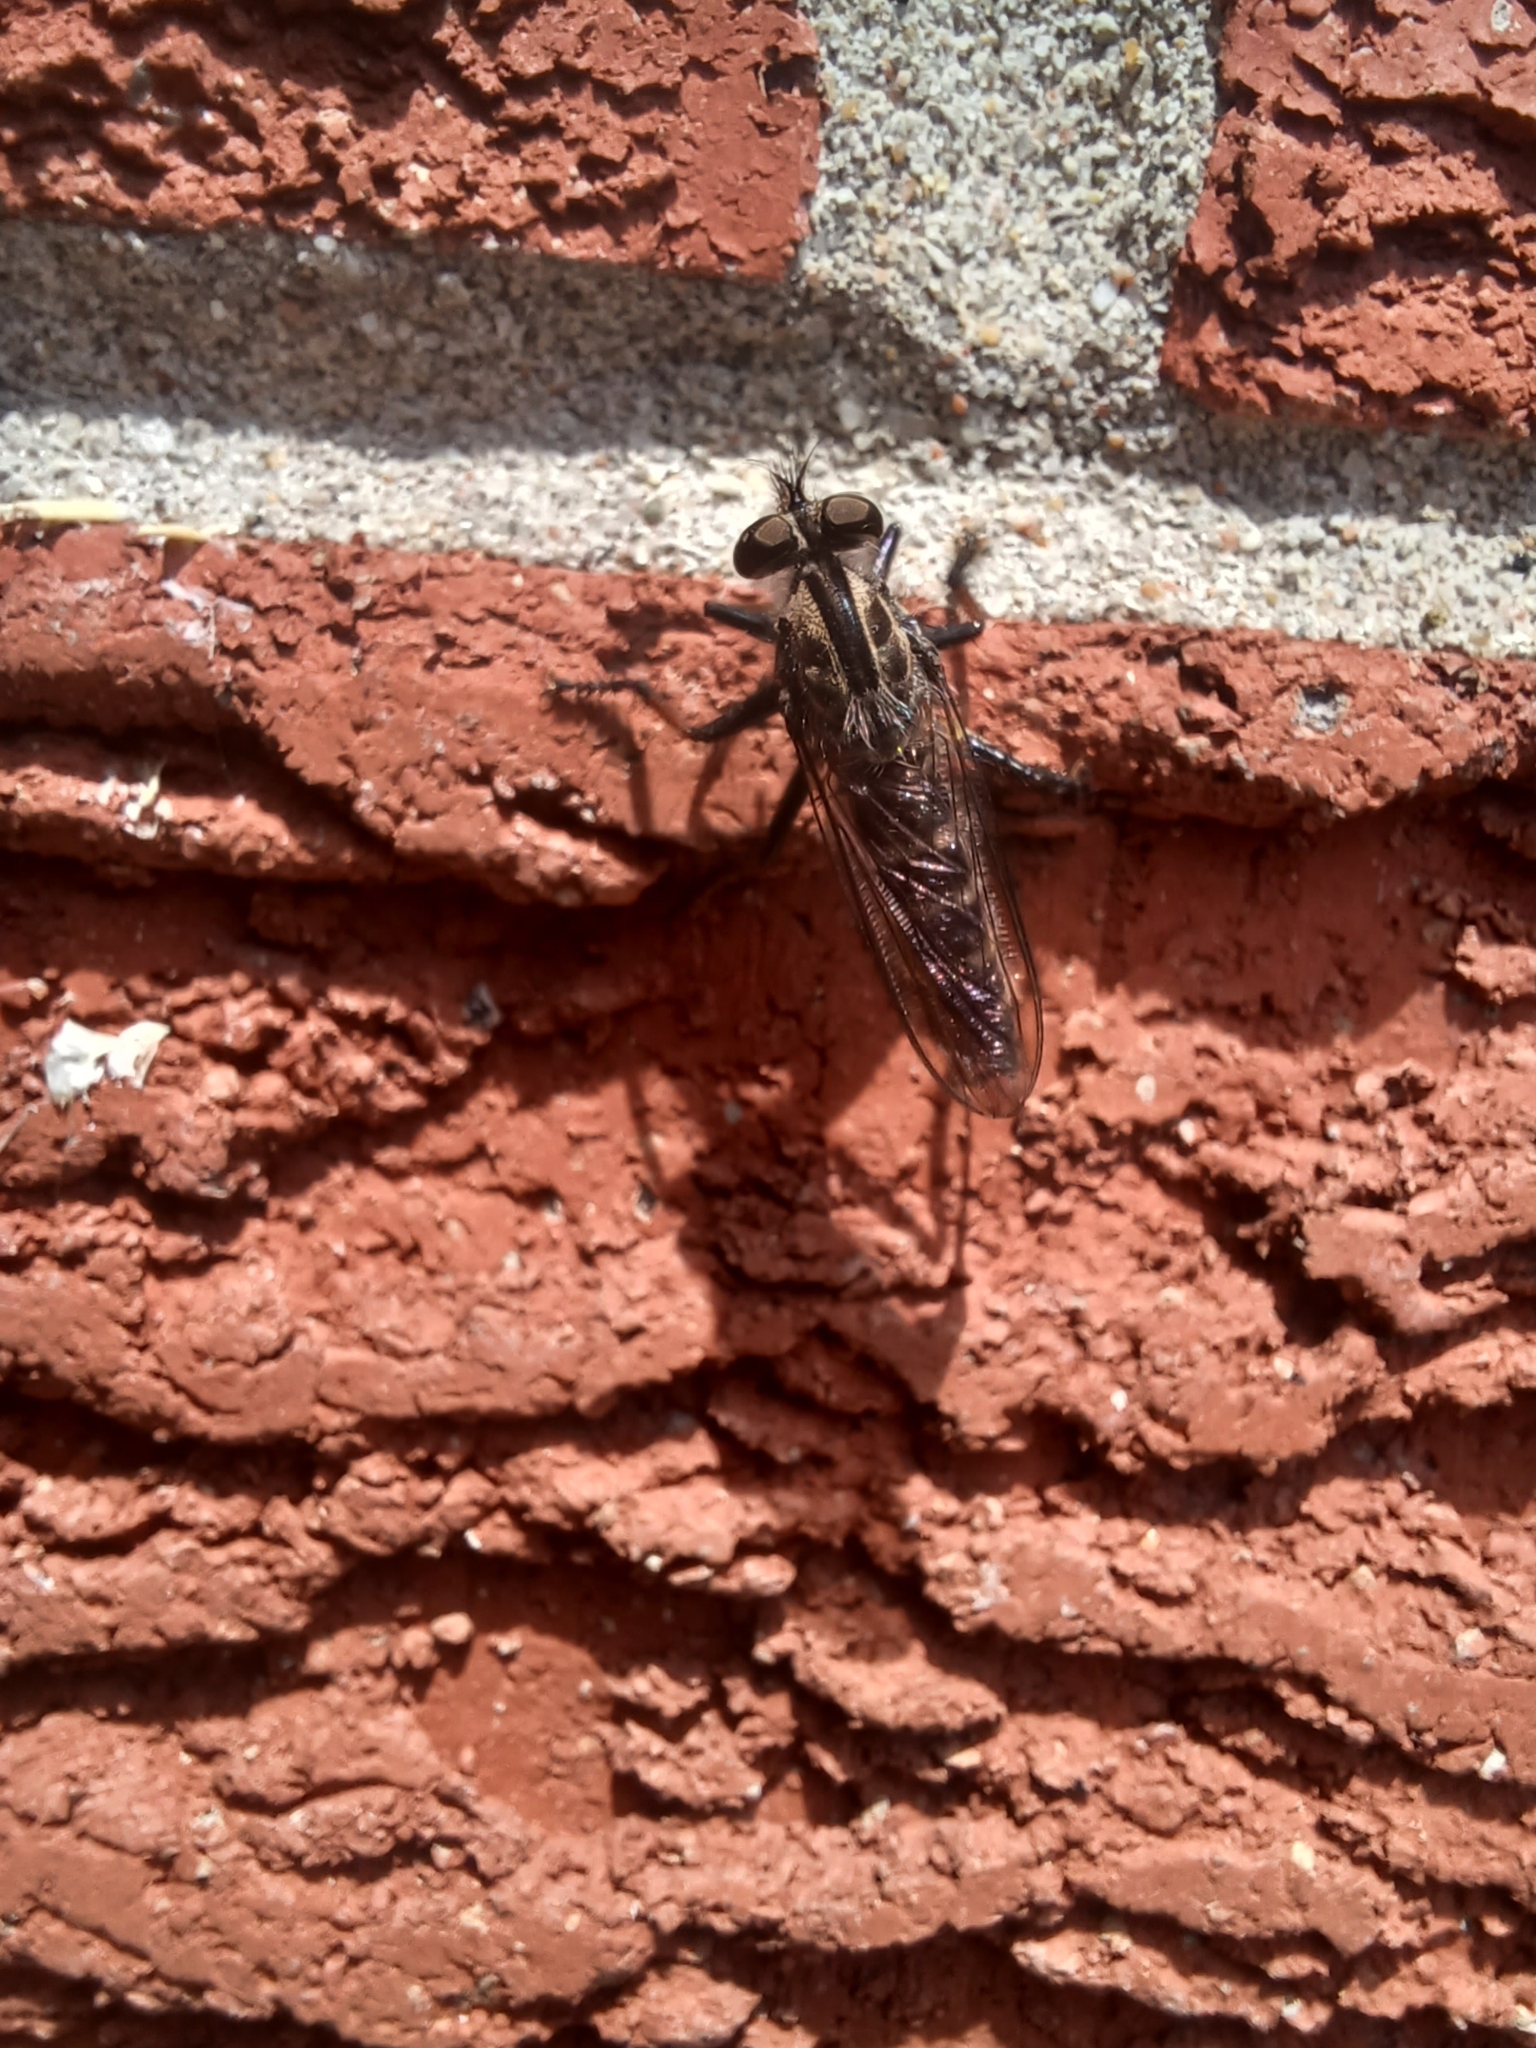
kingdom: Animalia
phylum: Arthropoda
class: Insecta
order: Diptera
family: Asilidae
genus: Efferia
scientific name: Efferia aestuans
